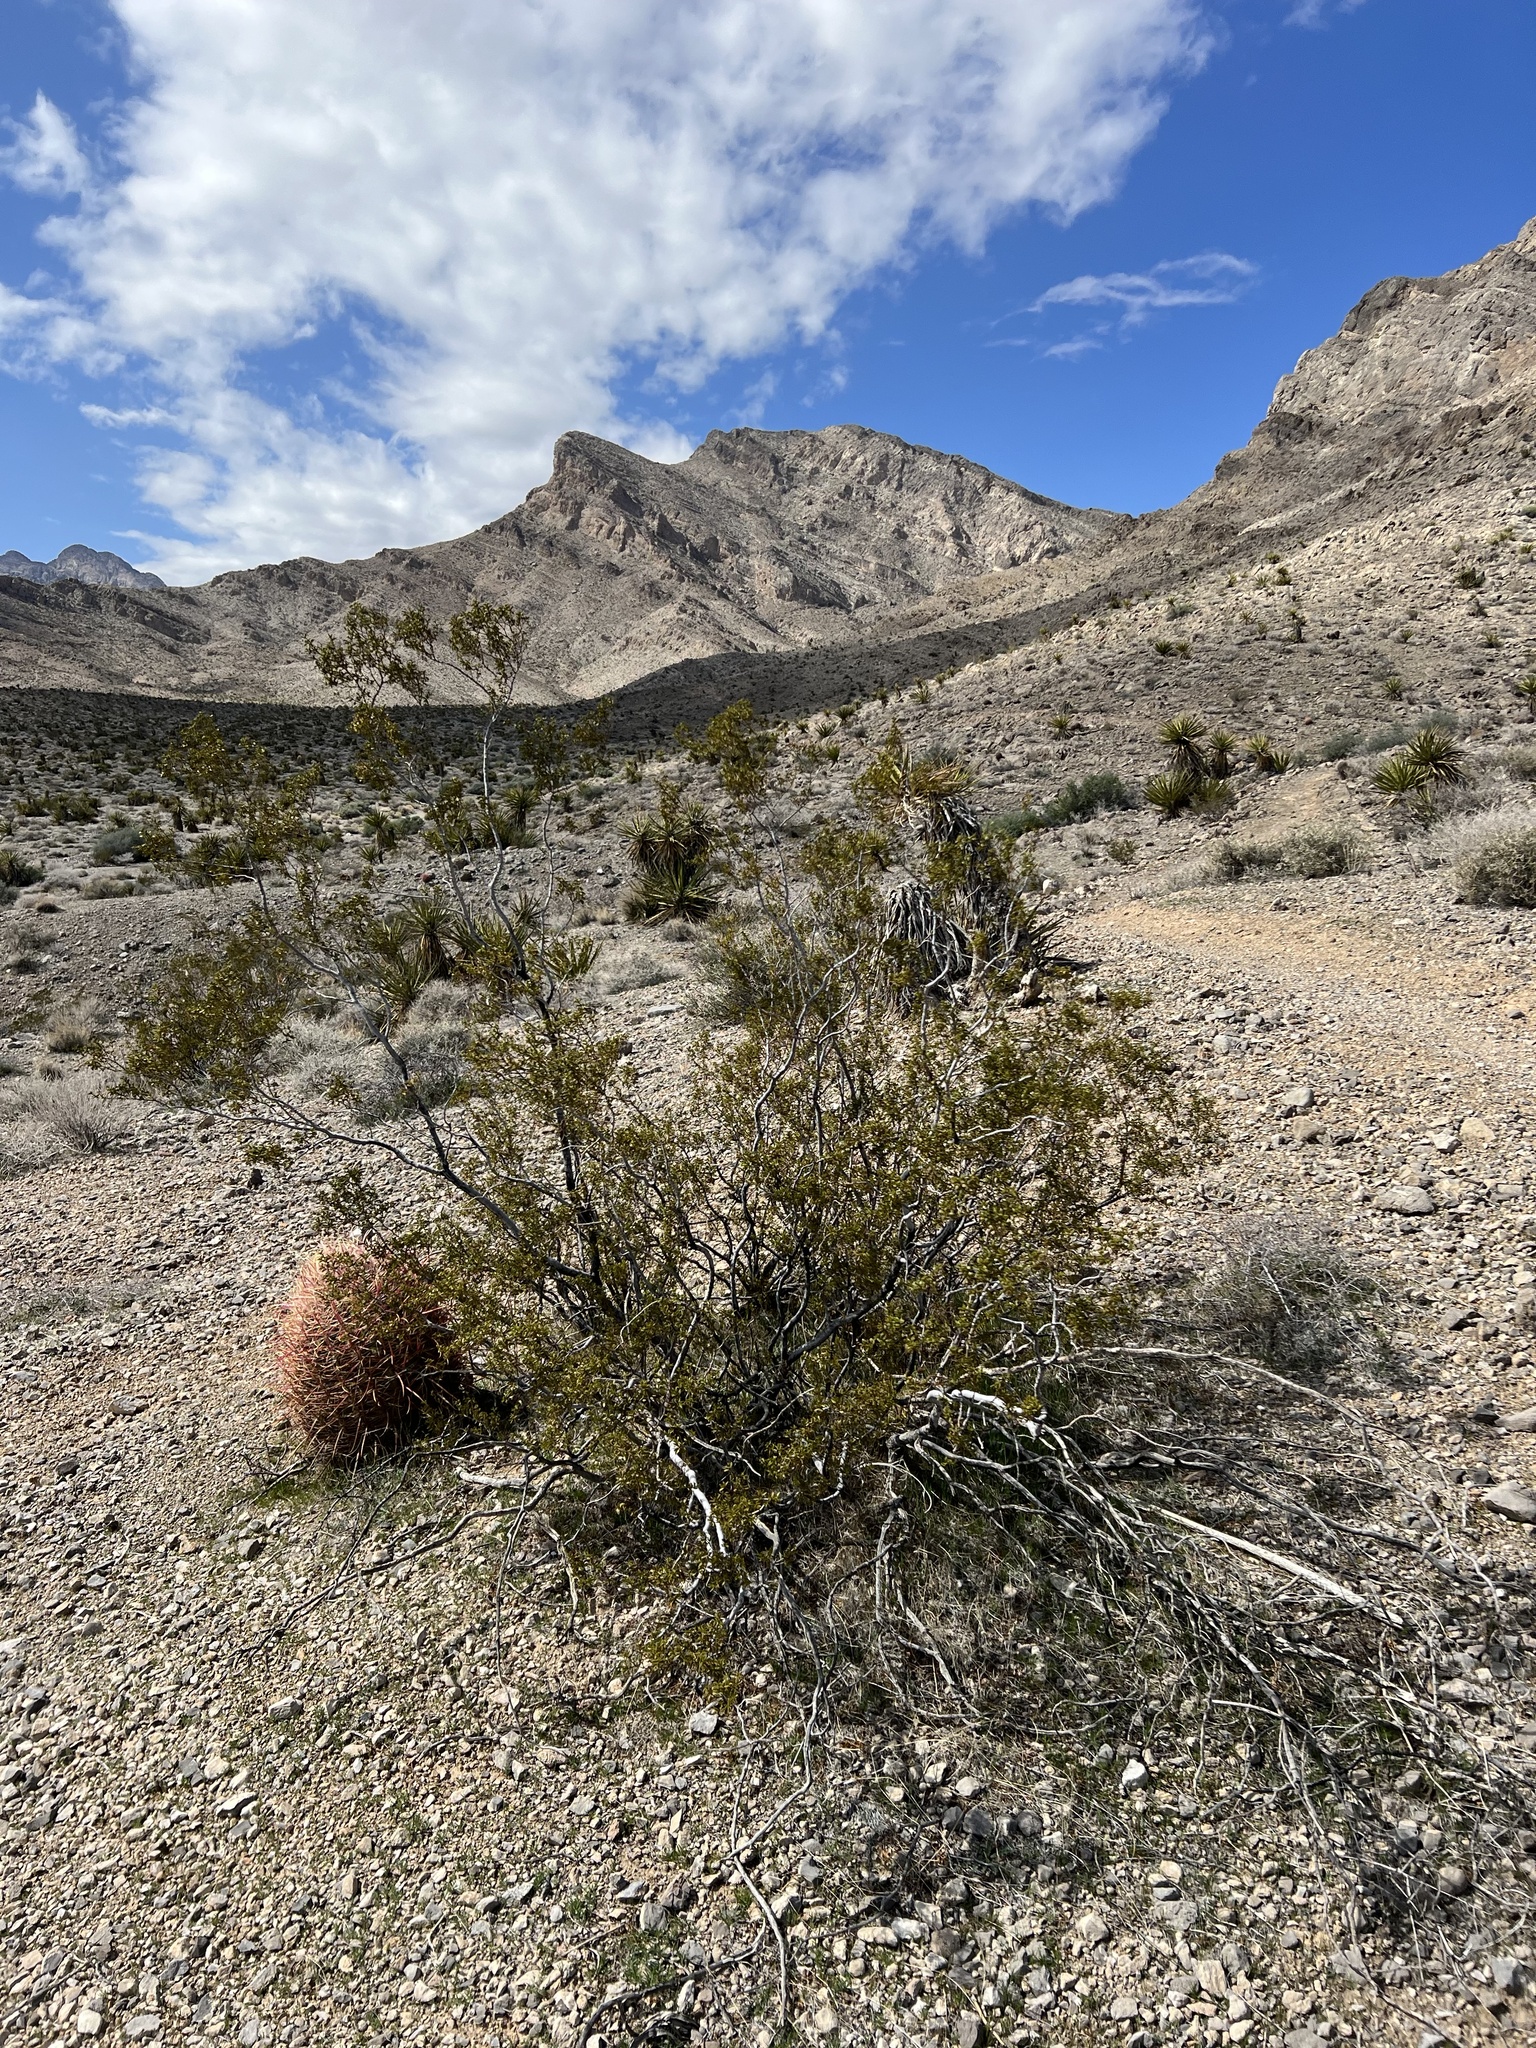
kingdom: Plantae
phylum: Tracheophyta
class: Magnoliopsida
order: Zygophyllales
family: Zygophyllaceae
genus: Larrea
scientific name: Larrea tridentata
